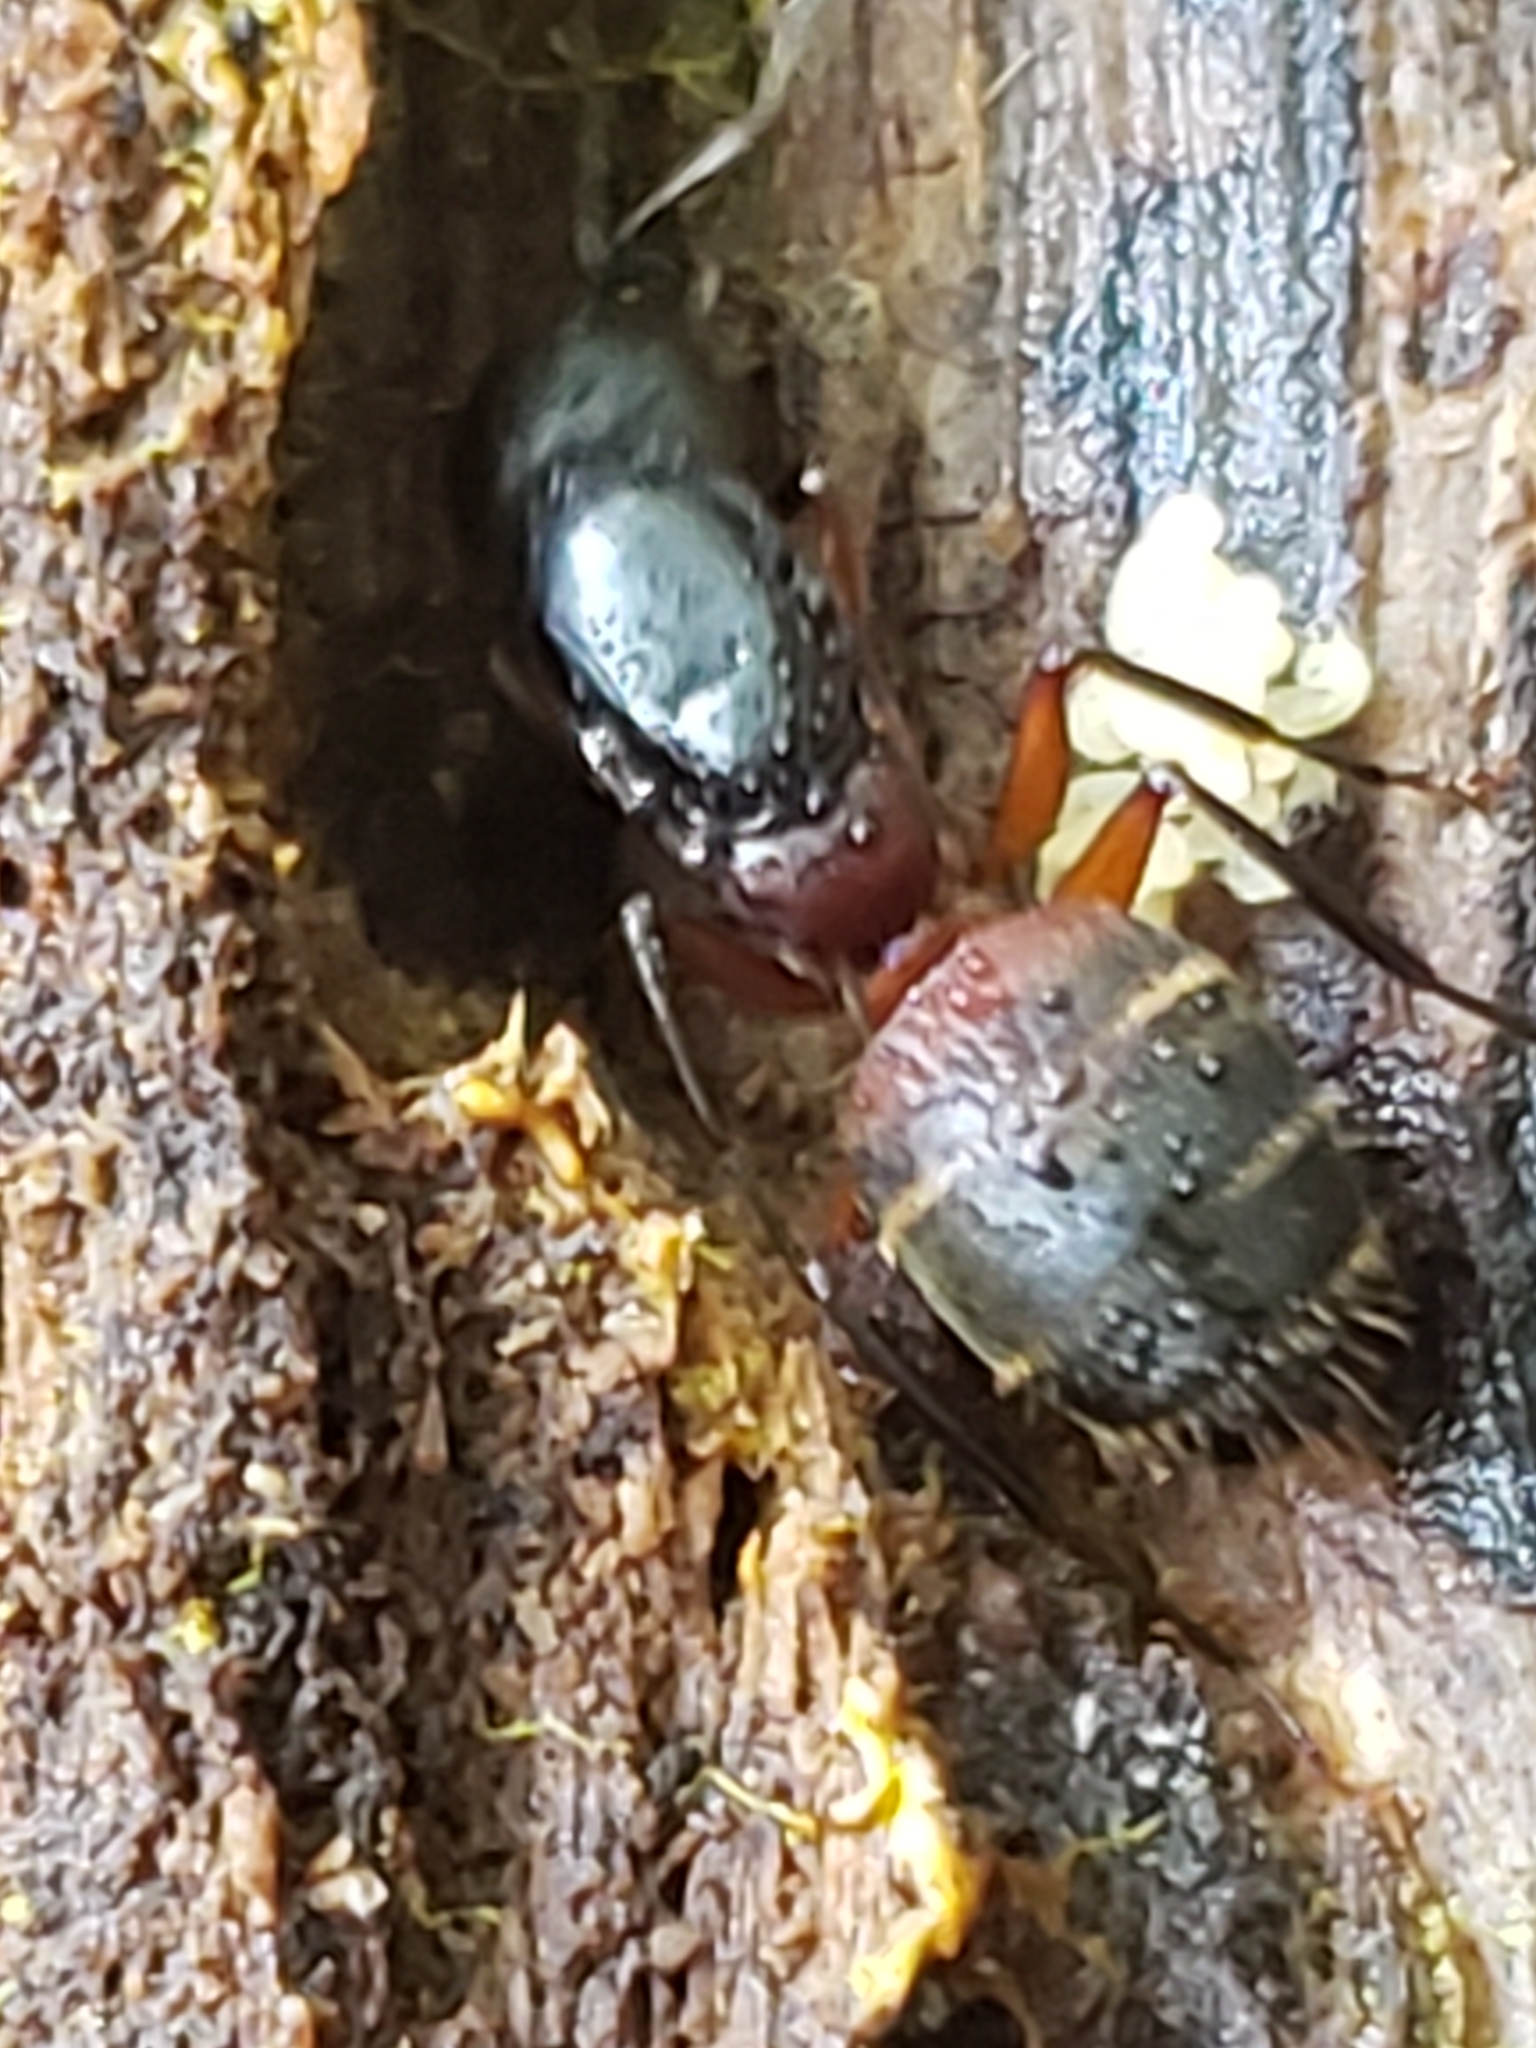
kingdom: Animalia
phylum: Arthropoda
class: Insecta
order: Hymenoptera
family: Formicidae
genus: Camponotus
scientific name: Camponotus chromaiodes
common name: Red carpenter ant
